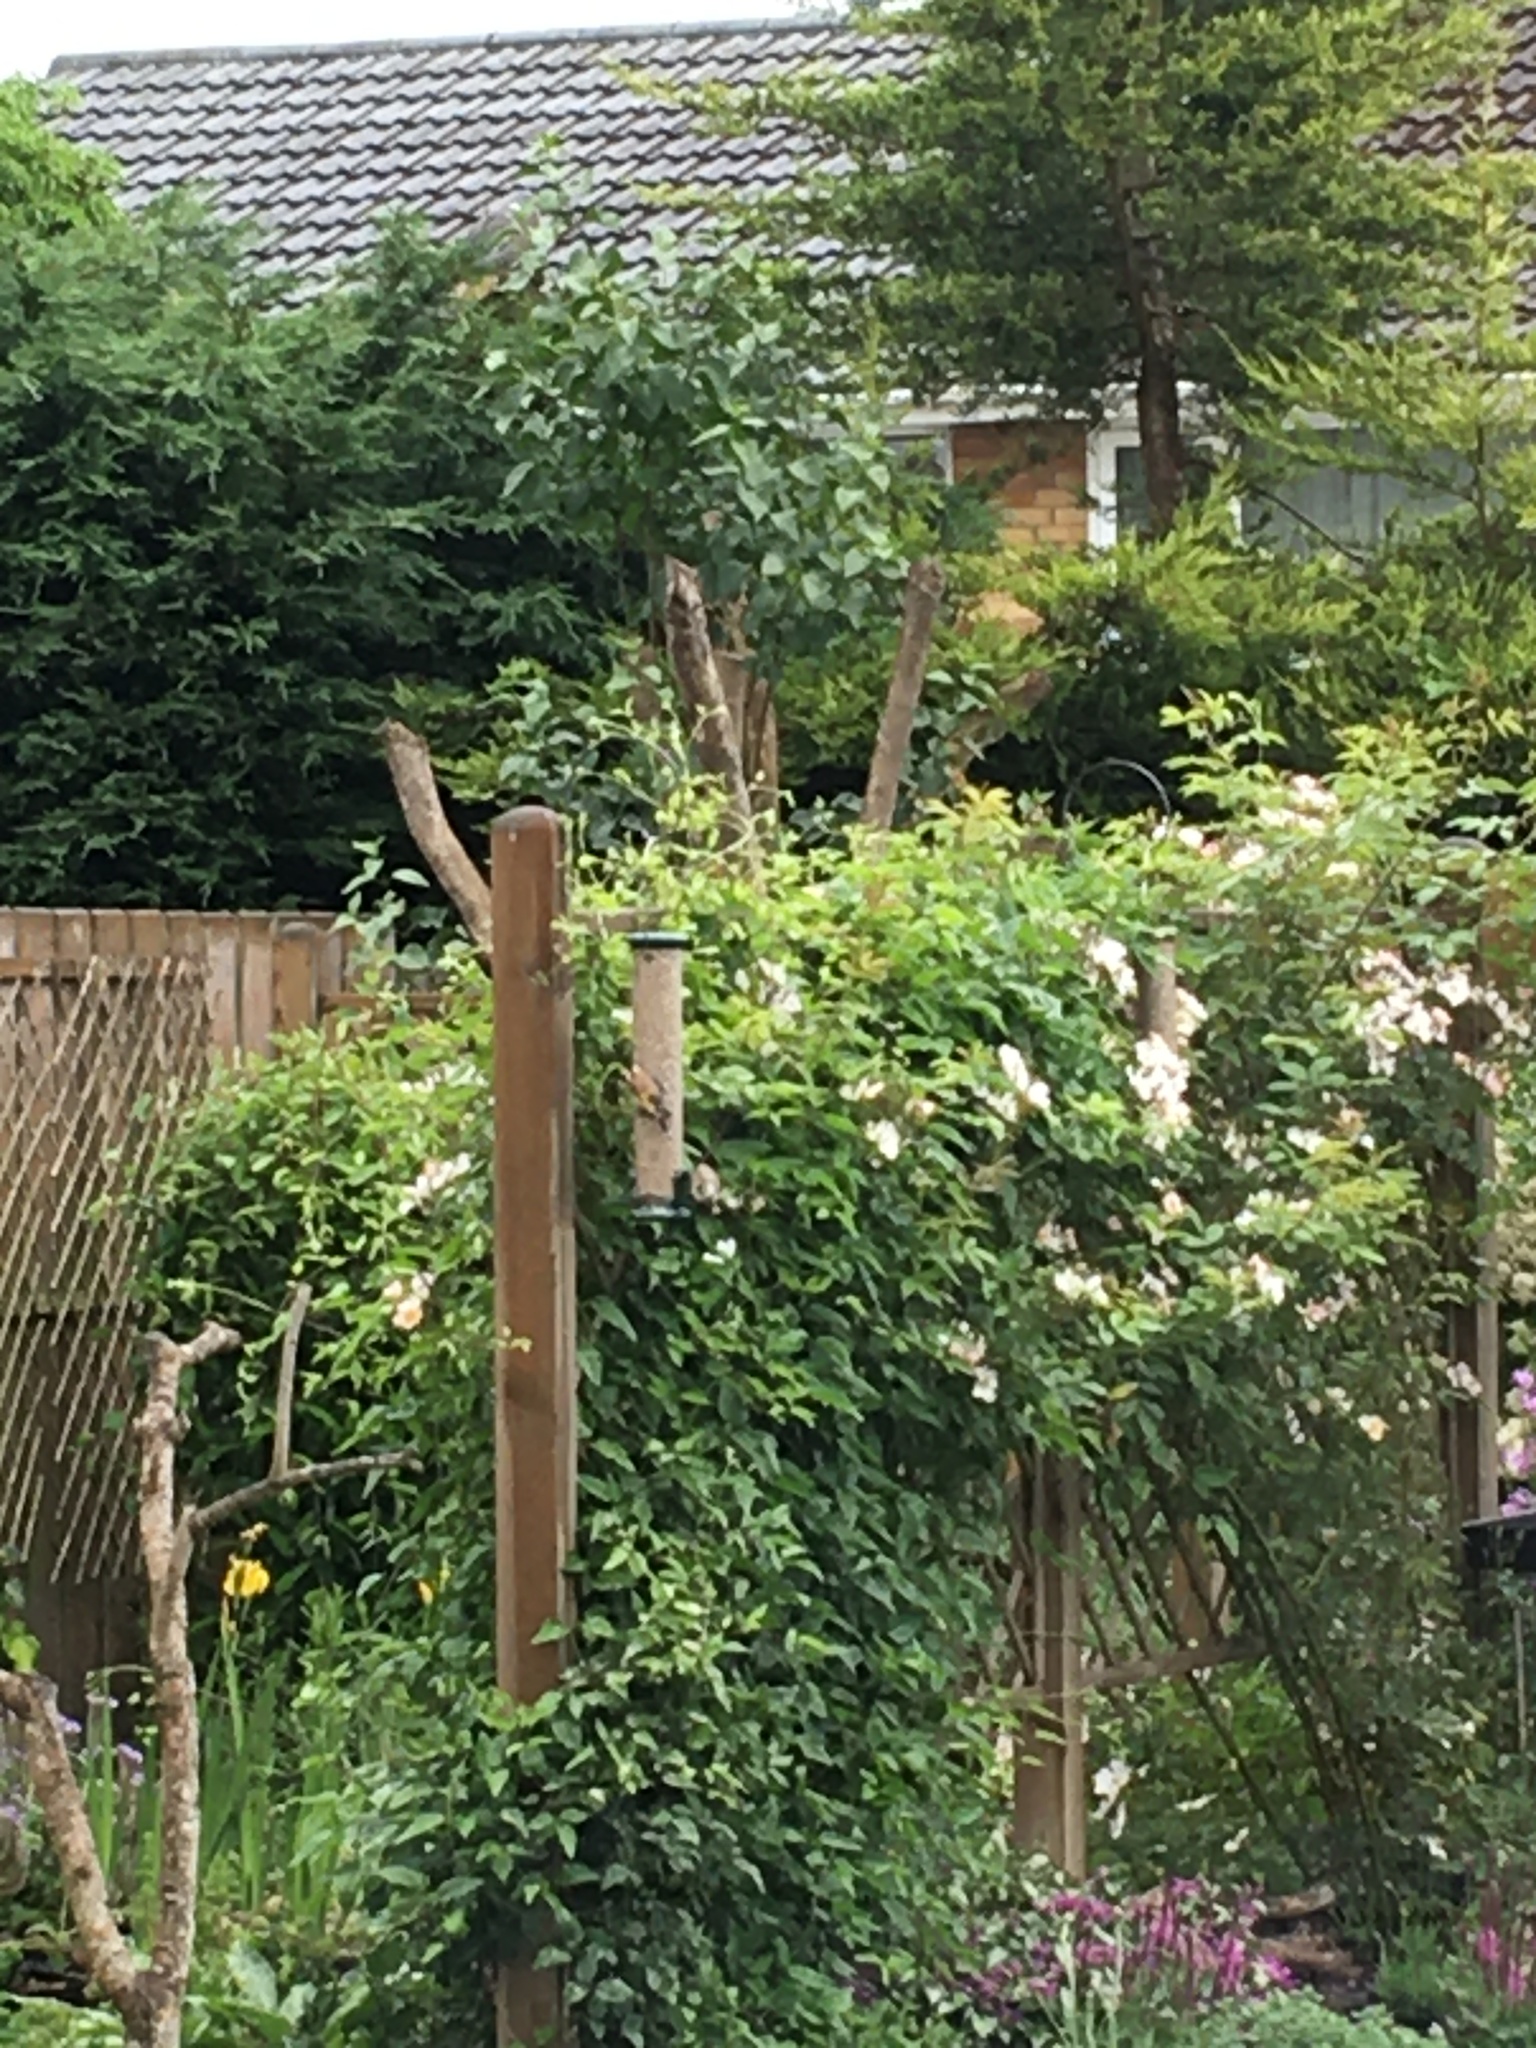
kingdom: Animalia
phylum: Chordata
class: Aves
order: Passeriformes
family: Fringillidae
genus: Carduelis
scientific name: Carduelis carduelis
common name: European goldfinch
